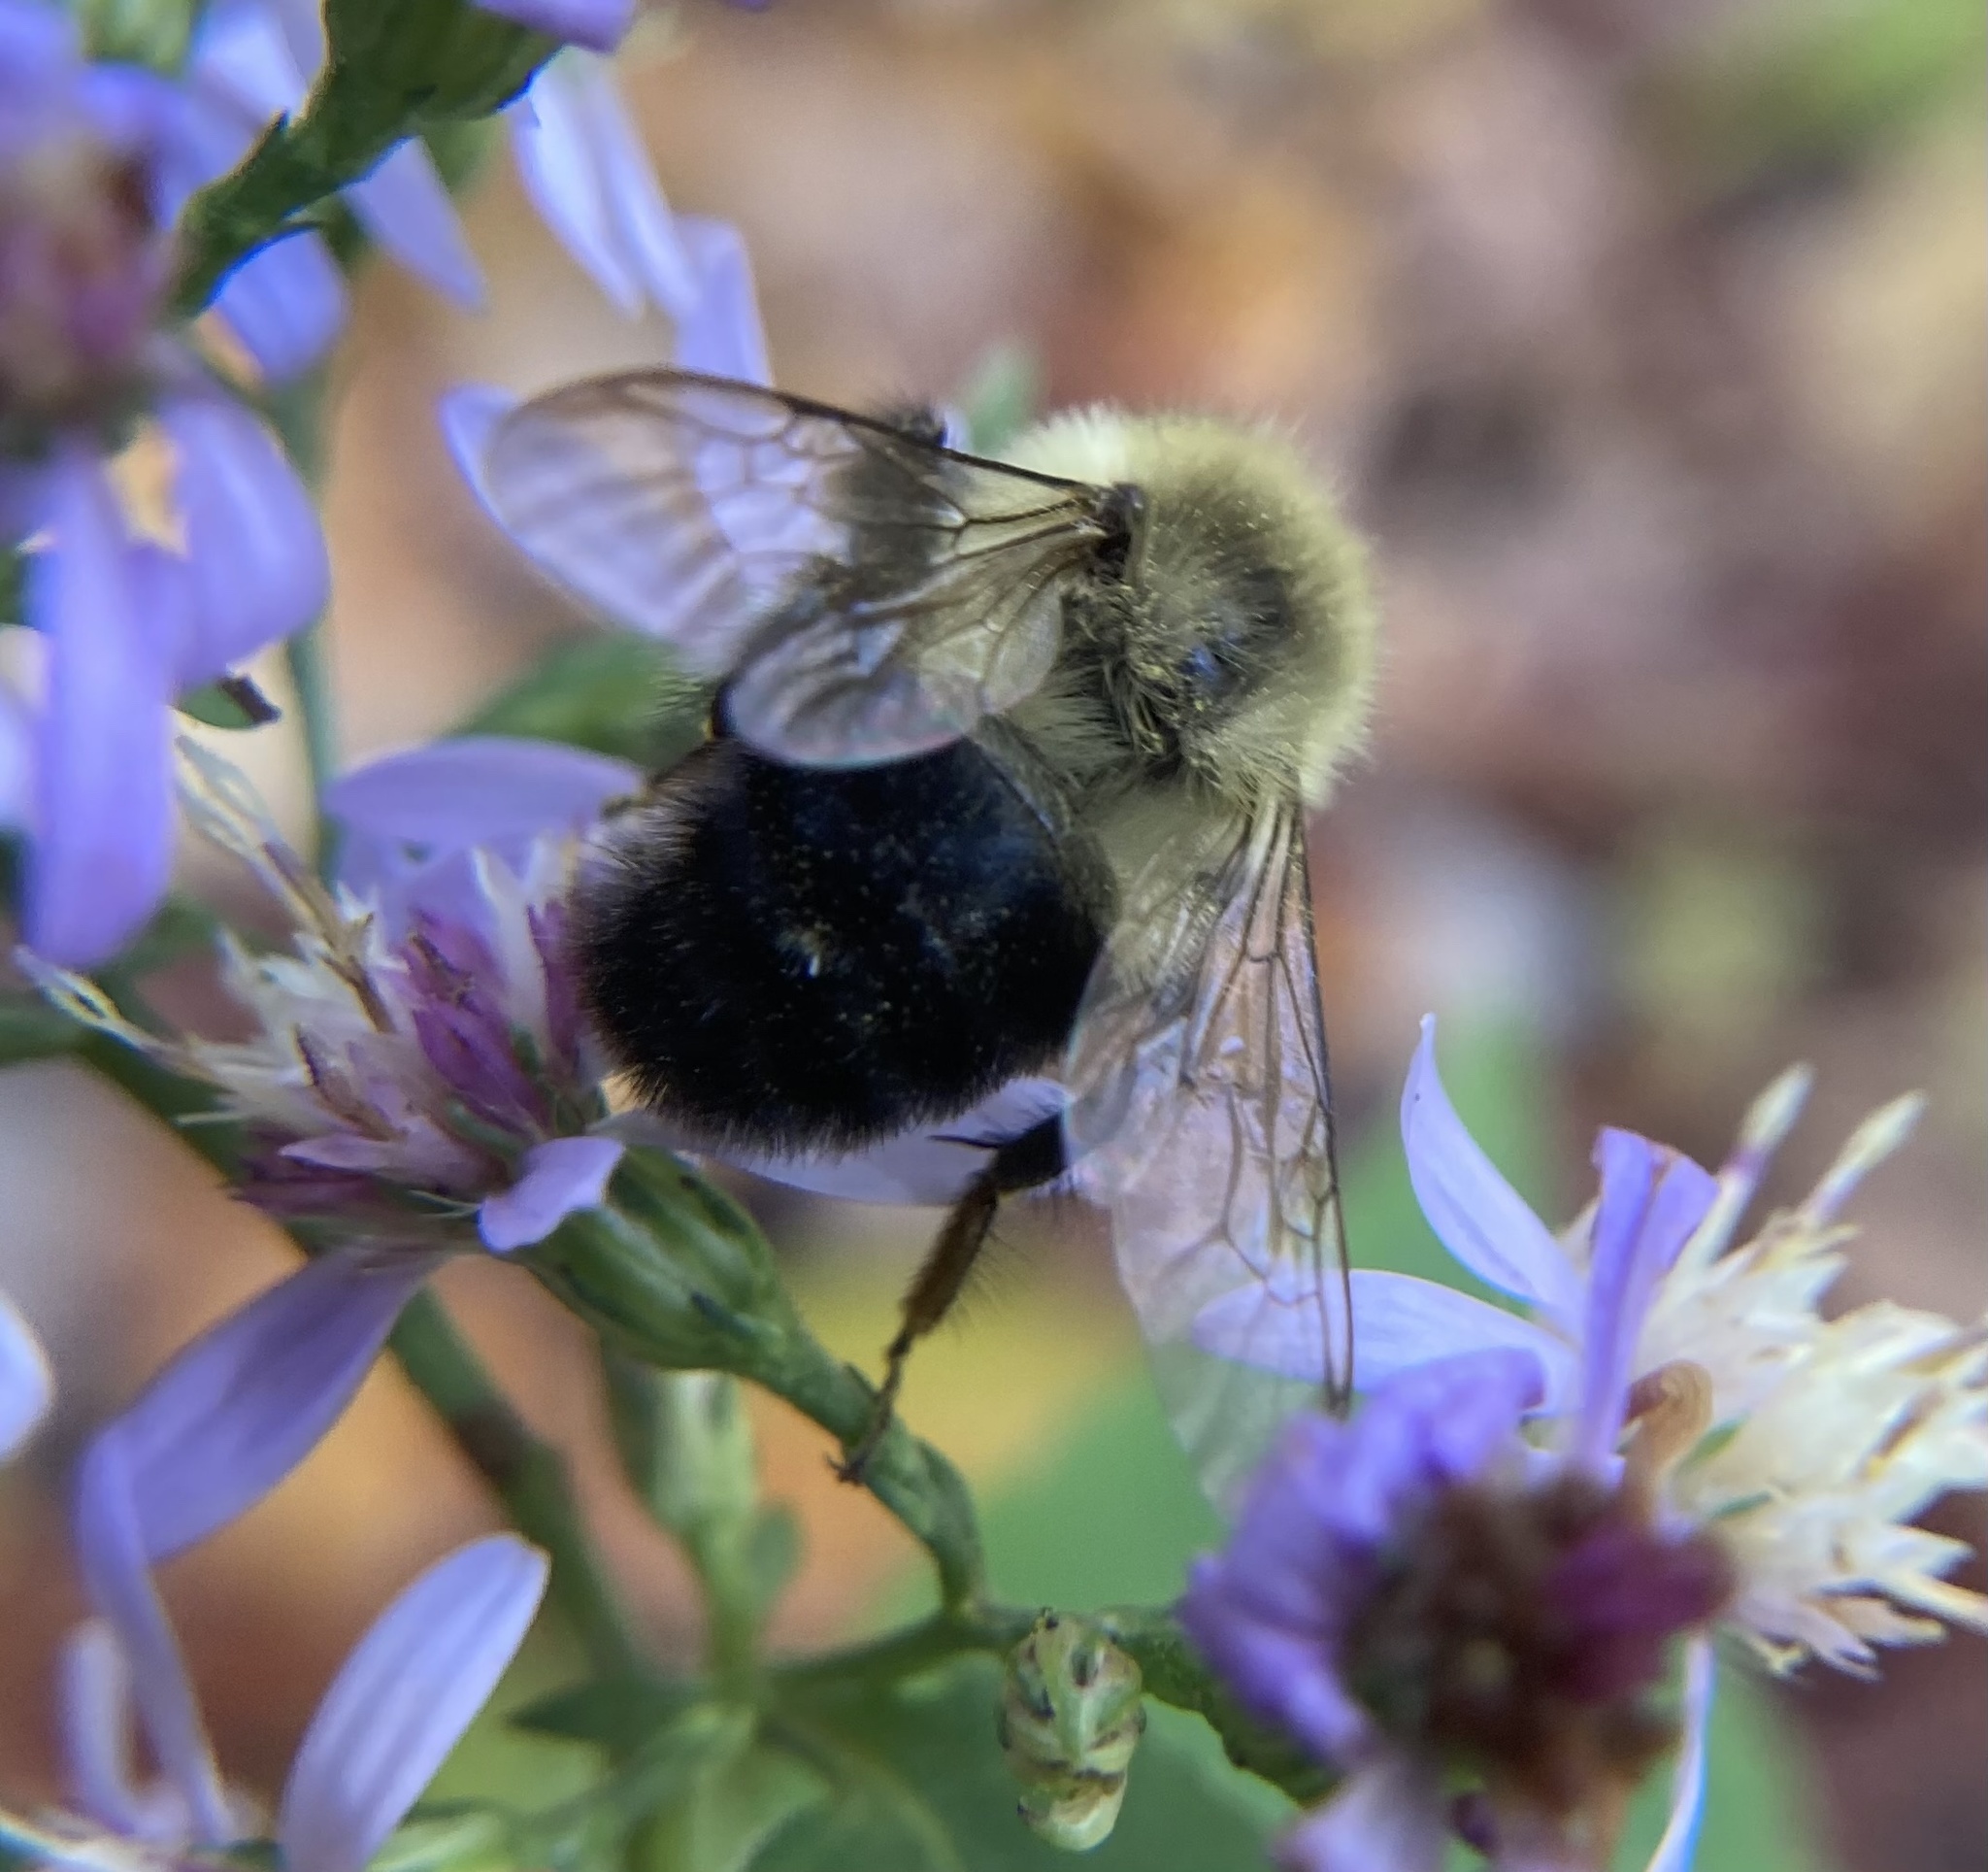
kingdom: Animalia
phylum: Arthropoda
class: Insecta
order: Hymenoptera
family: Apidae
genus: Bombus
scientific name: Bombus impatiens
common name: Common eastern bumble bee
